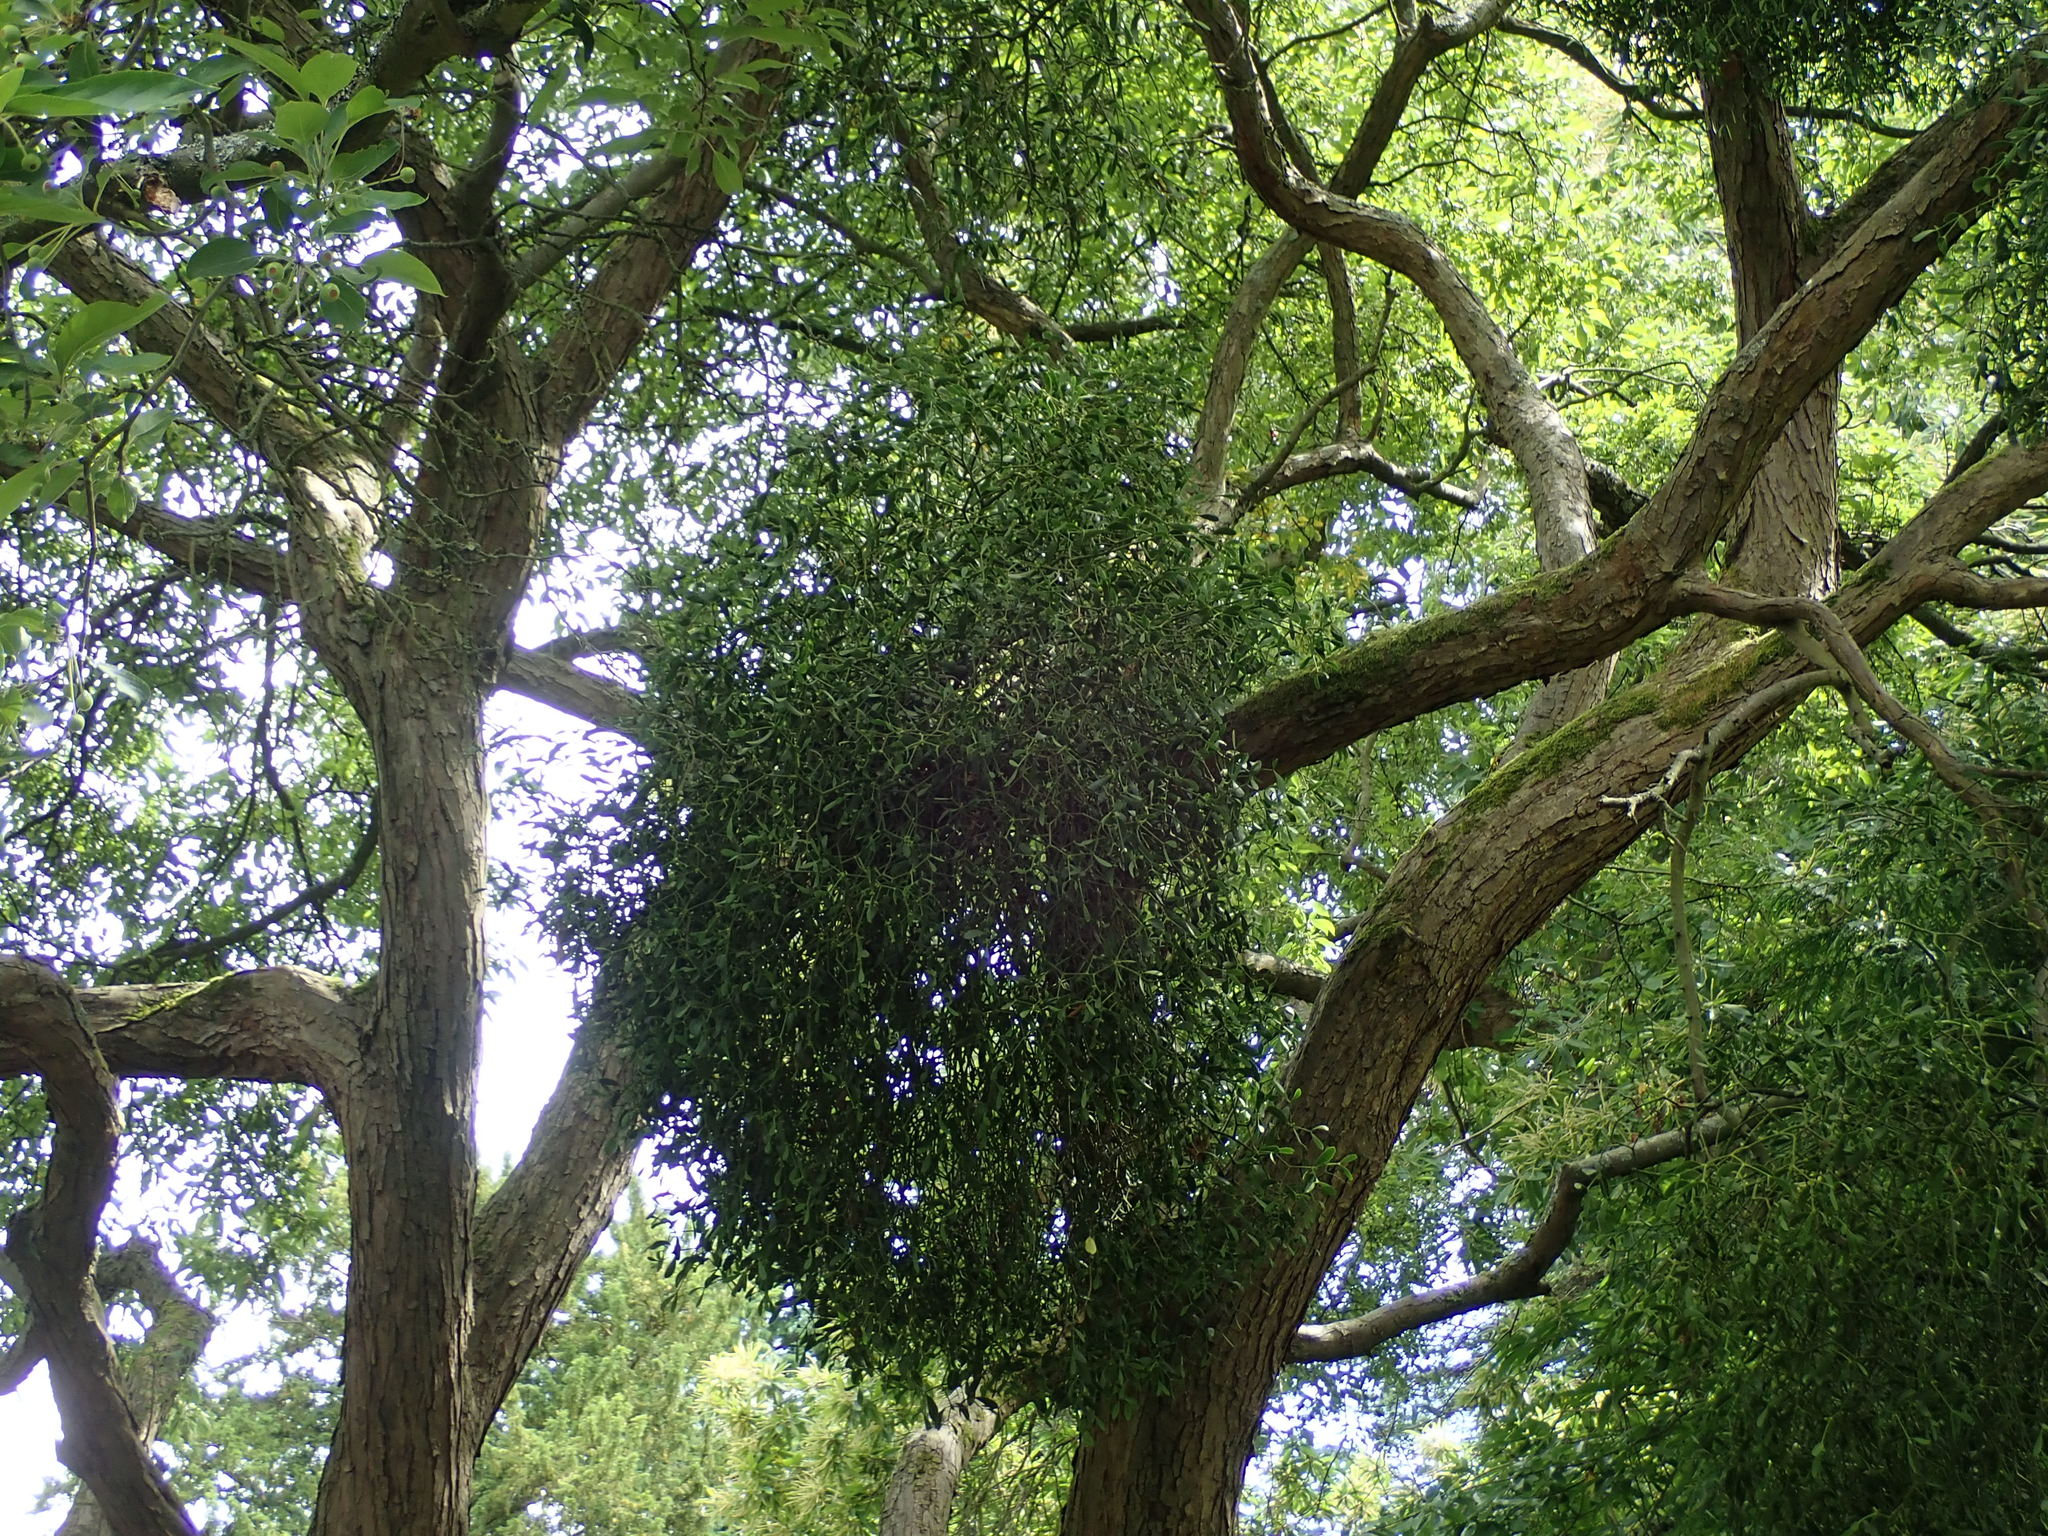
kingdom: Plantae
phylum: Tracheophyta
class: Magnoliopsida
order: Santalales
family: Viscaceae
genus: Viscum
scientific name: Viscum album
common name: Mistletoe
